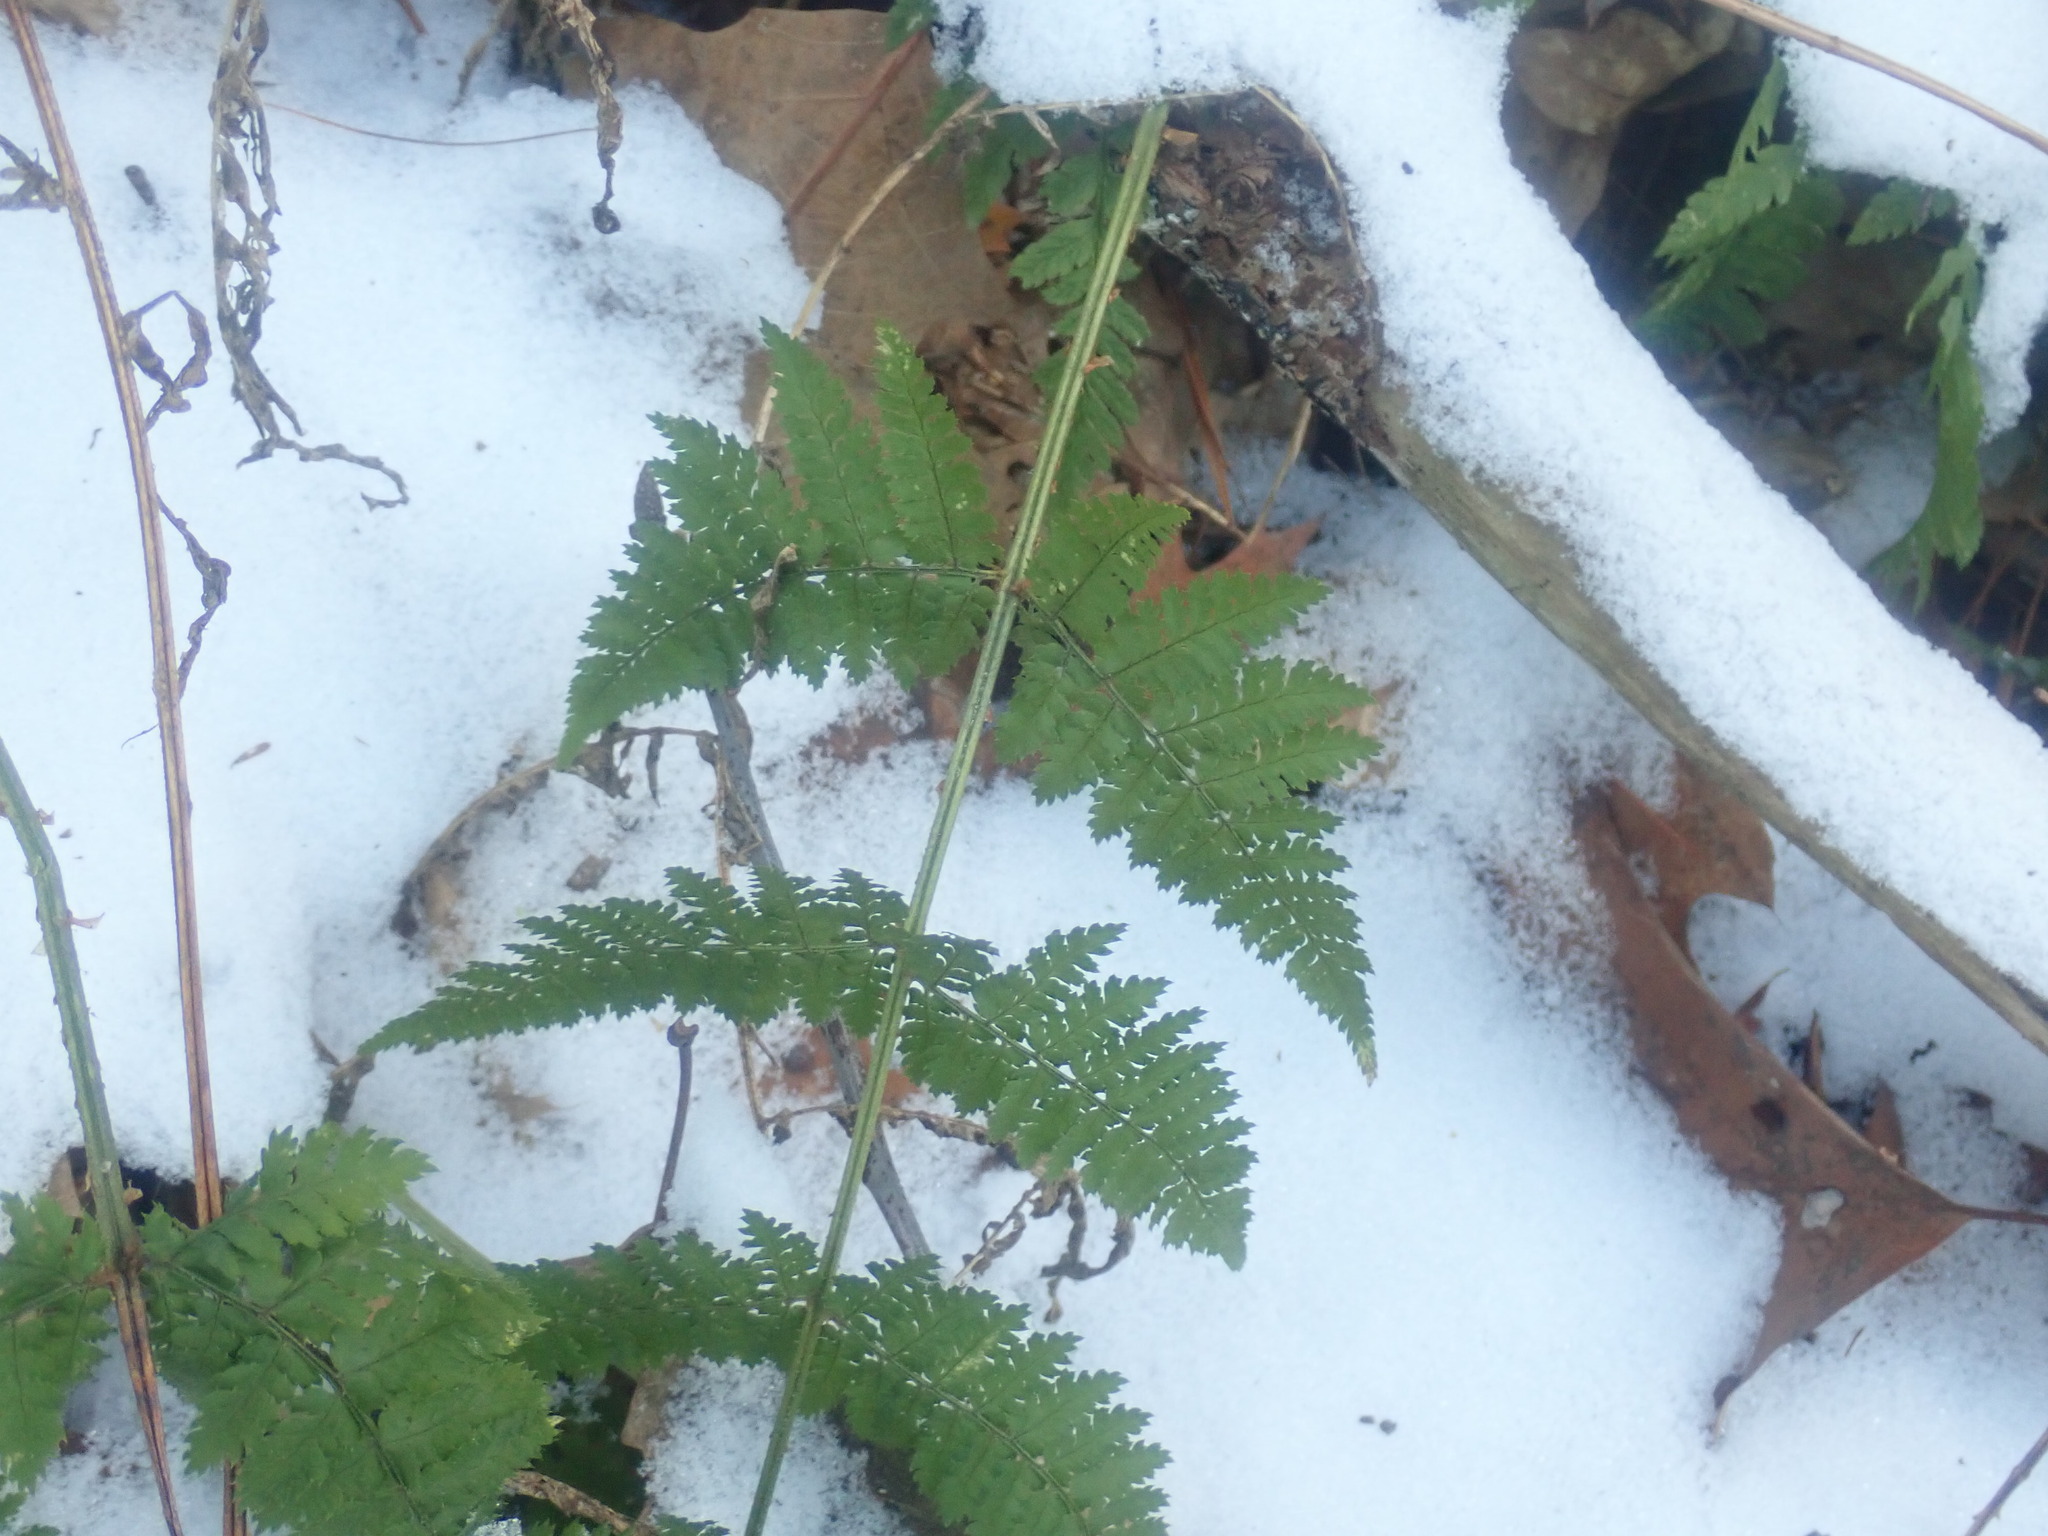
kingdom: Plantae
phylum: Tracheophyta
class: Polypodiopsida
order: Polypodiales
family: Dryopteridaceae
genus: Dryopteris
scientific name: Dryopteris intermedia
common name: Evergreen wood fern
